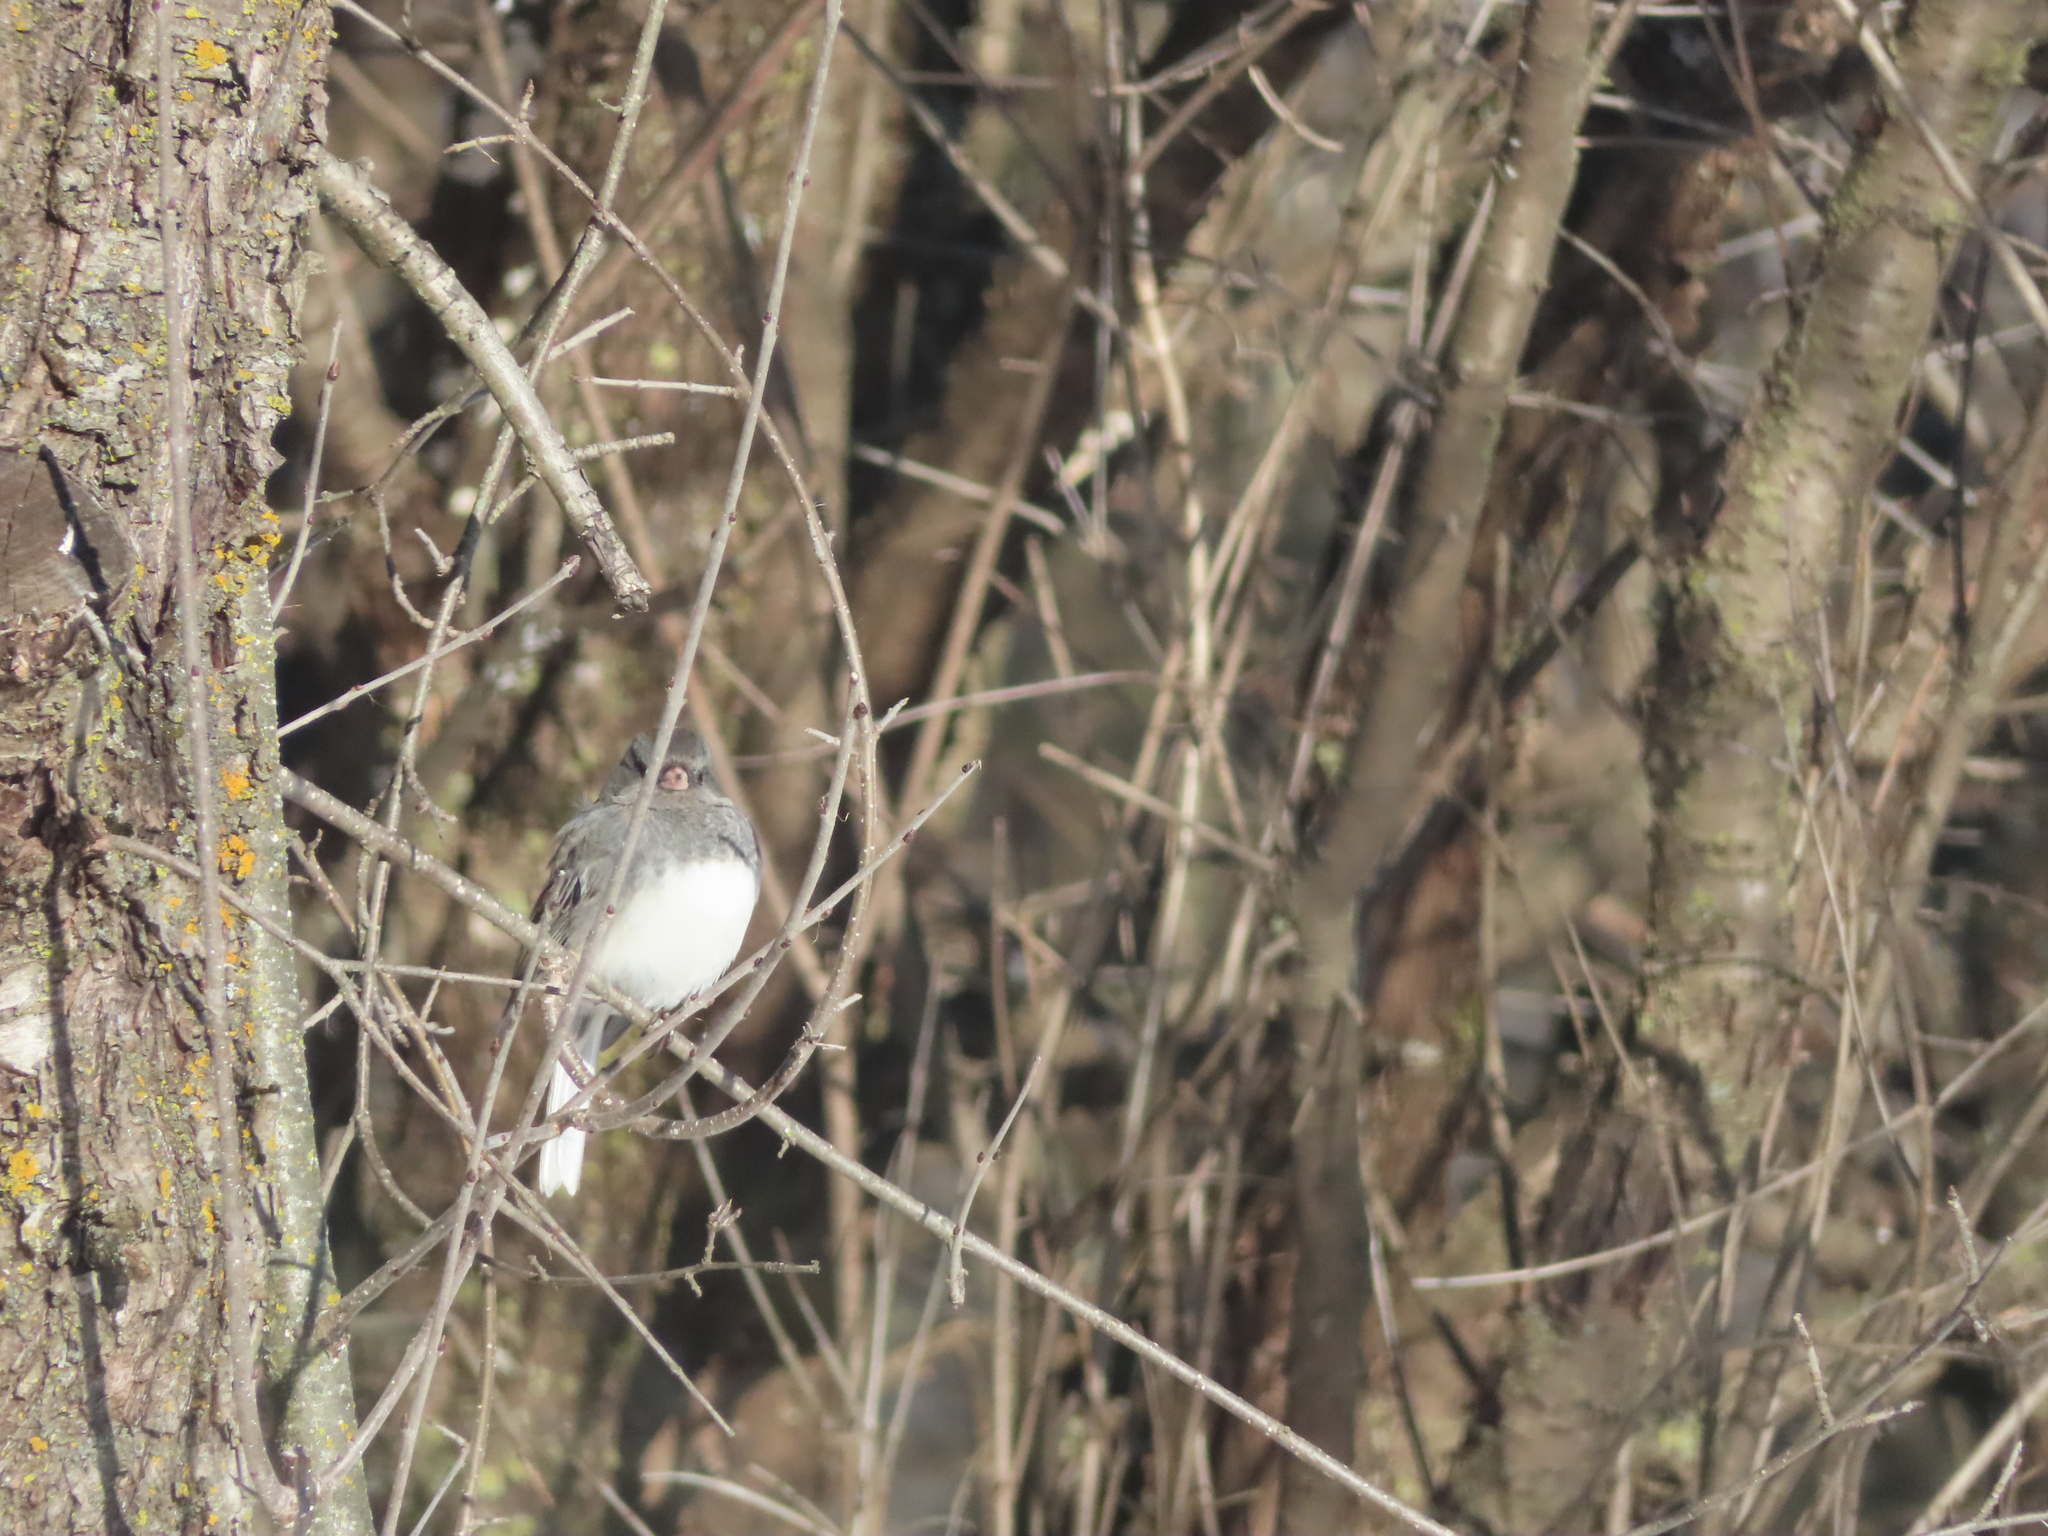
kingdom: Animalia
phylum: Chordata
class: Aves
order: Passeriformes
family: Passerellidae
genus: Junco
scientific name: Junco hyemalis
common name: Dark-eyed junco
